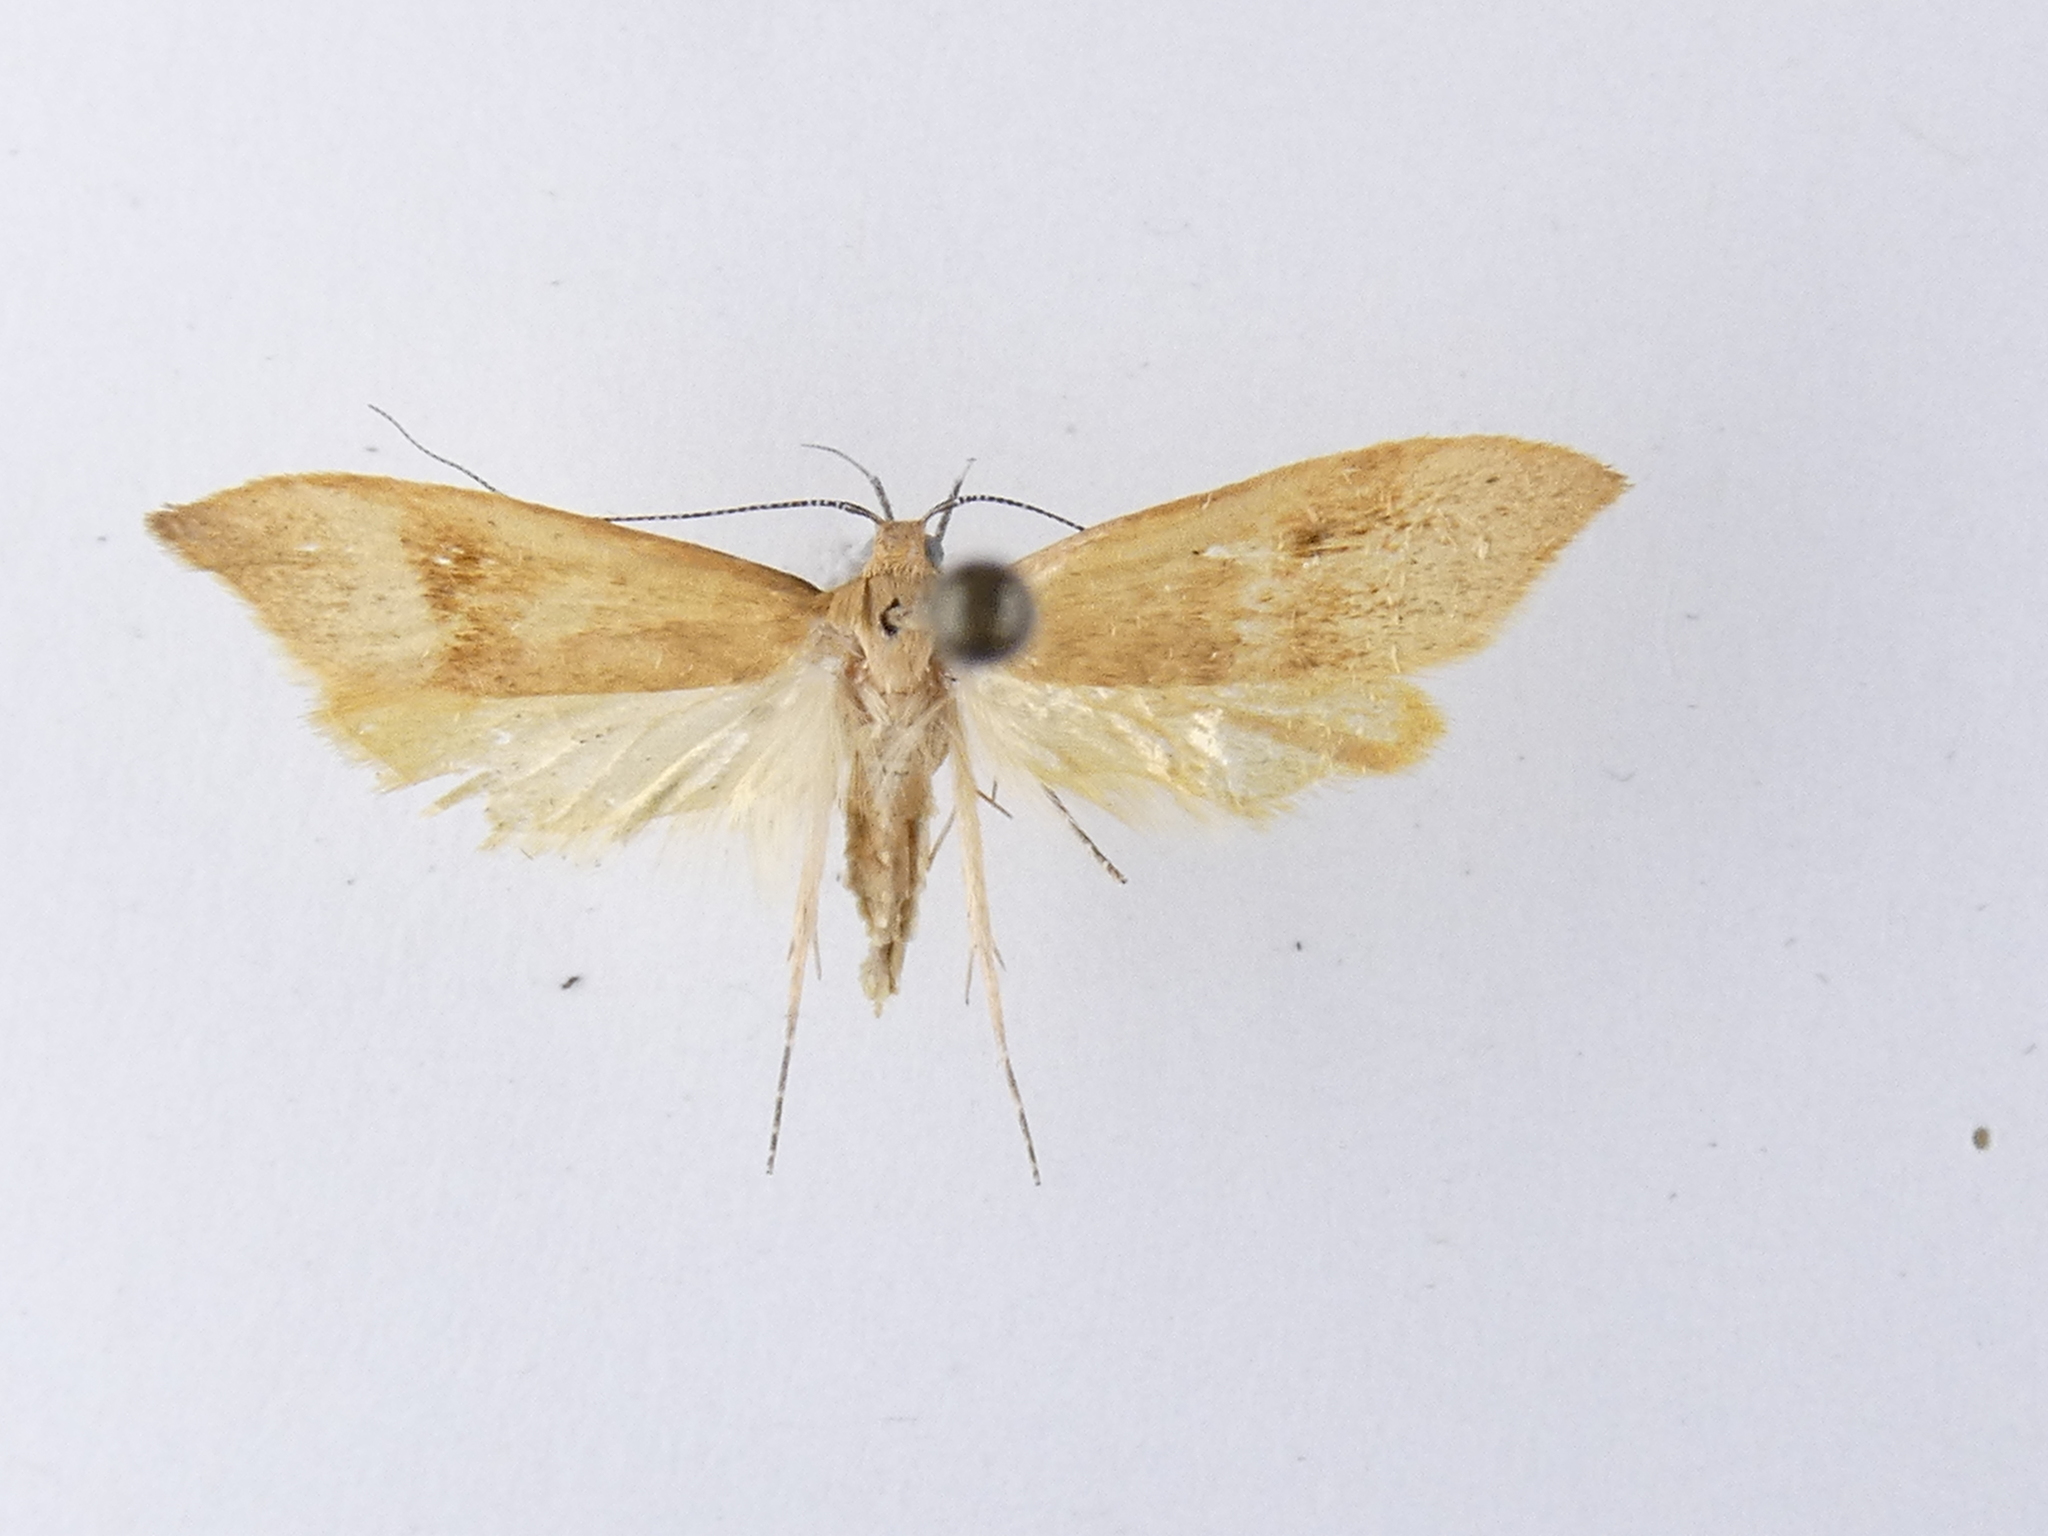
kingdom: Animalia
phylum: Arthropoda
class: Insecta
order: Lepidoptera
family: Oecophoridae
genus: Gymnobathra
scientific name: Gymnobathra hyetodes
